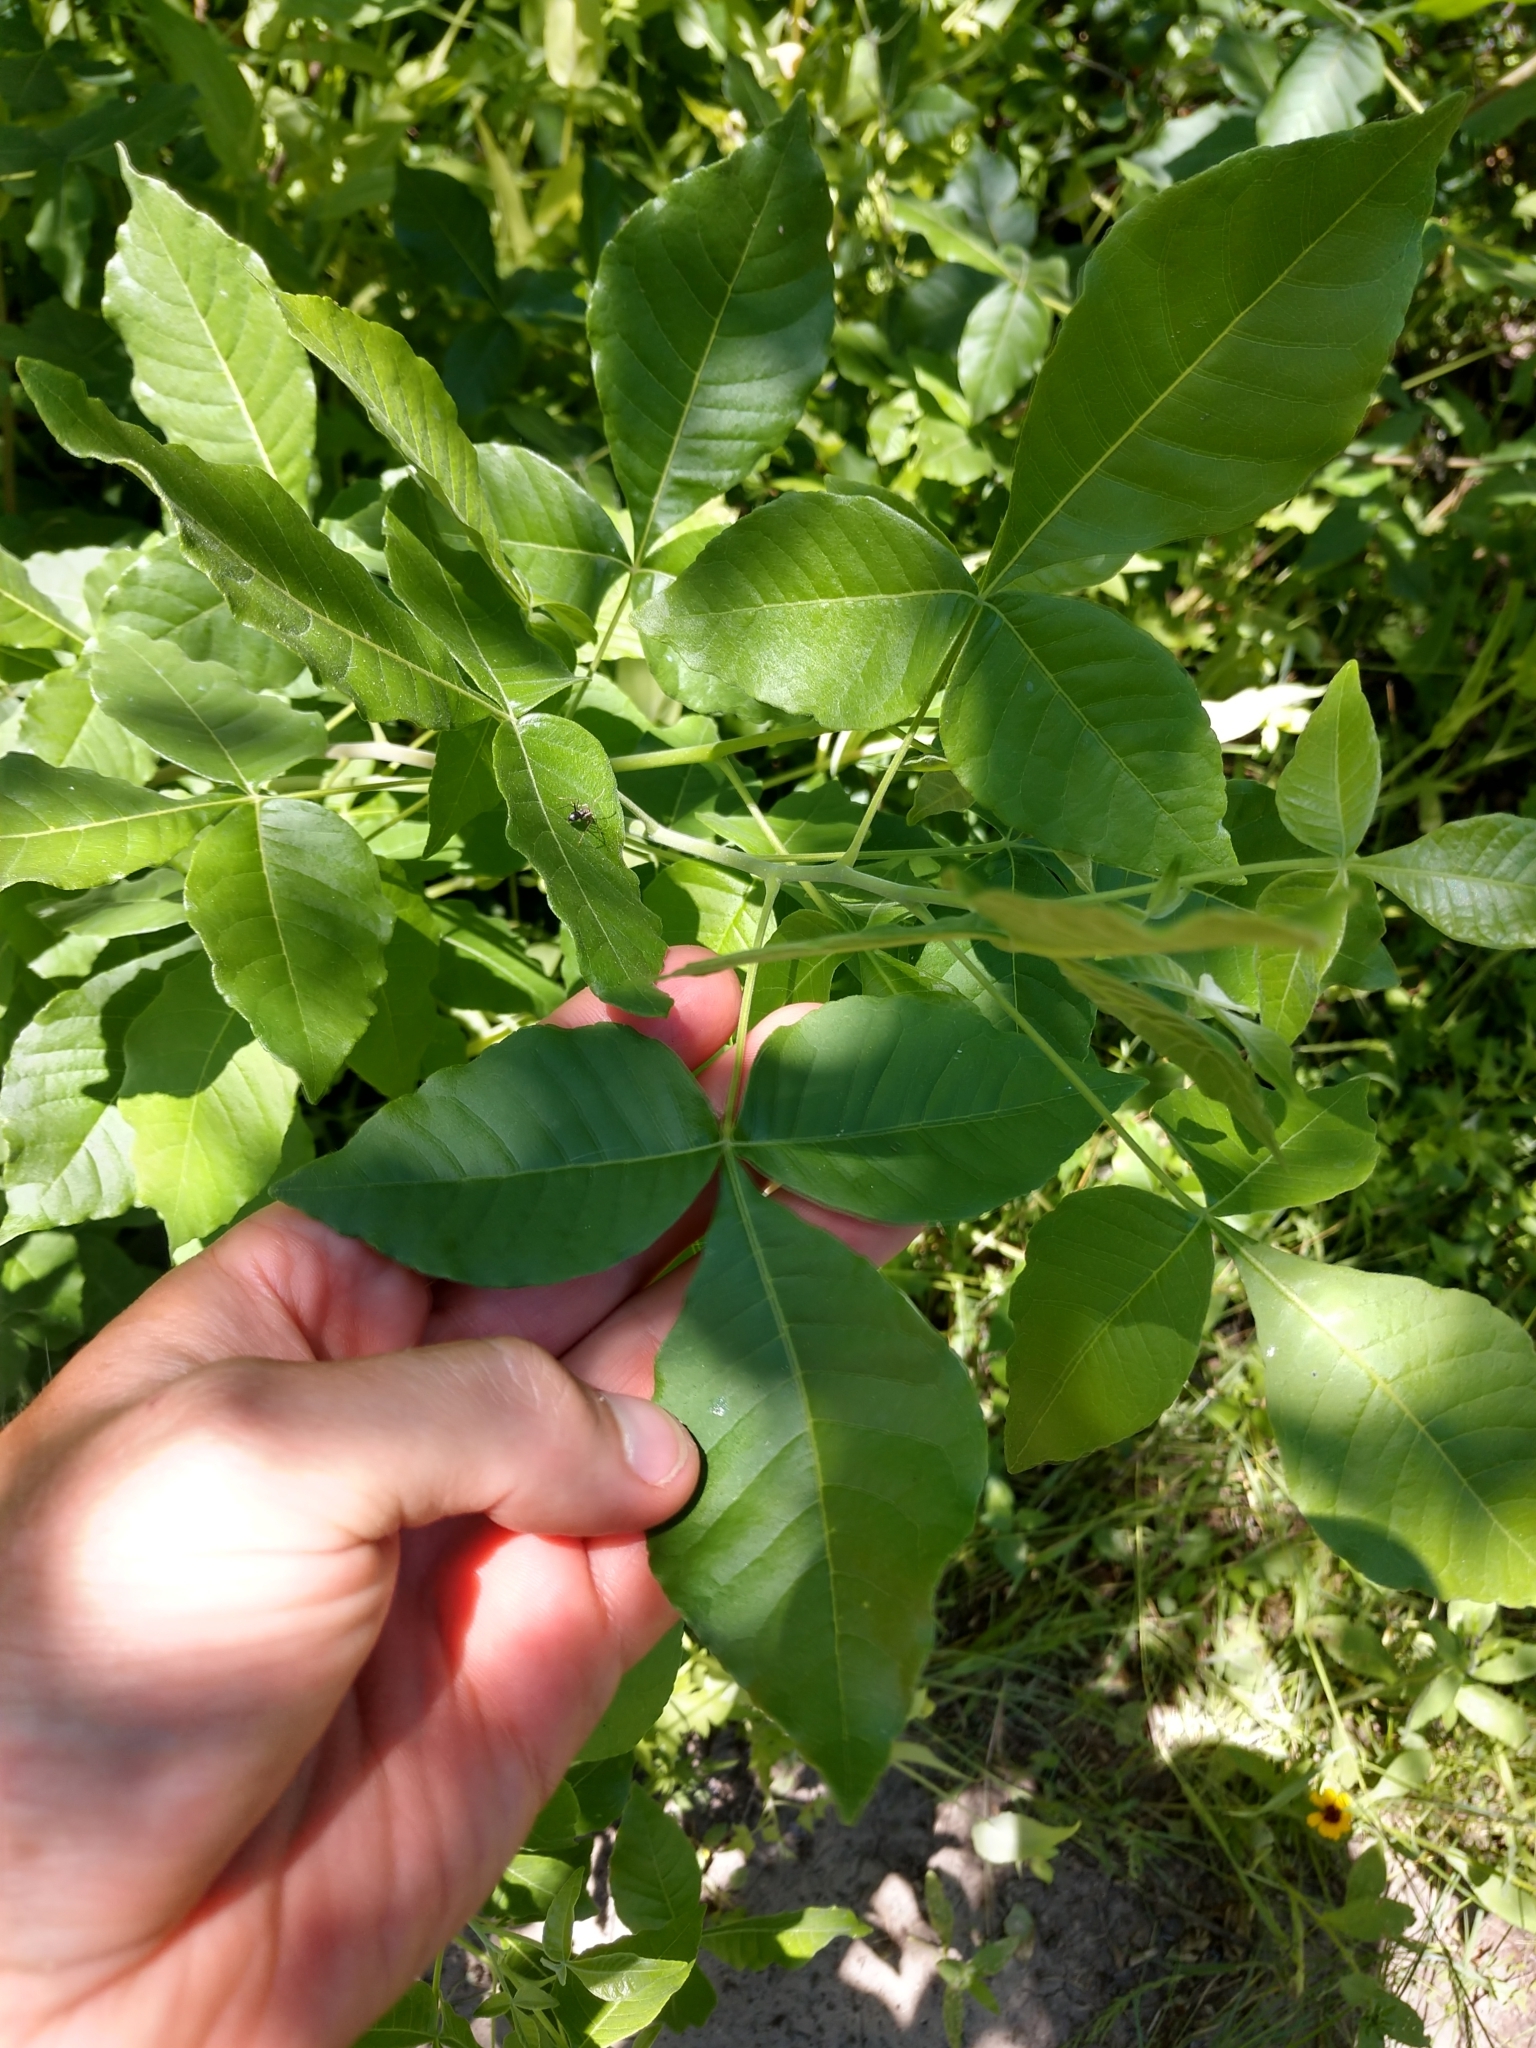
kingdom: Plantae
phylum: Tracheophyta
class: Magnoliopsida
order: Sapindales
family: Rutaceae
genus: Ptelea
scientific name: Ptelea trifoliata
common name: Common hop-tree
